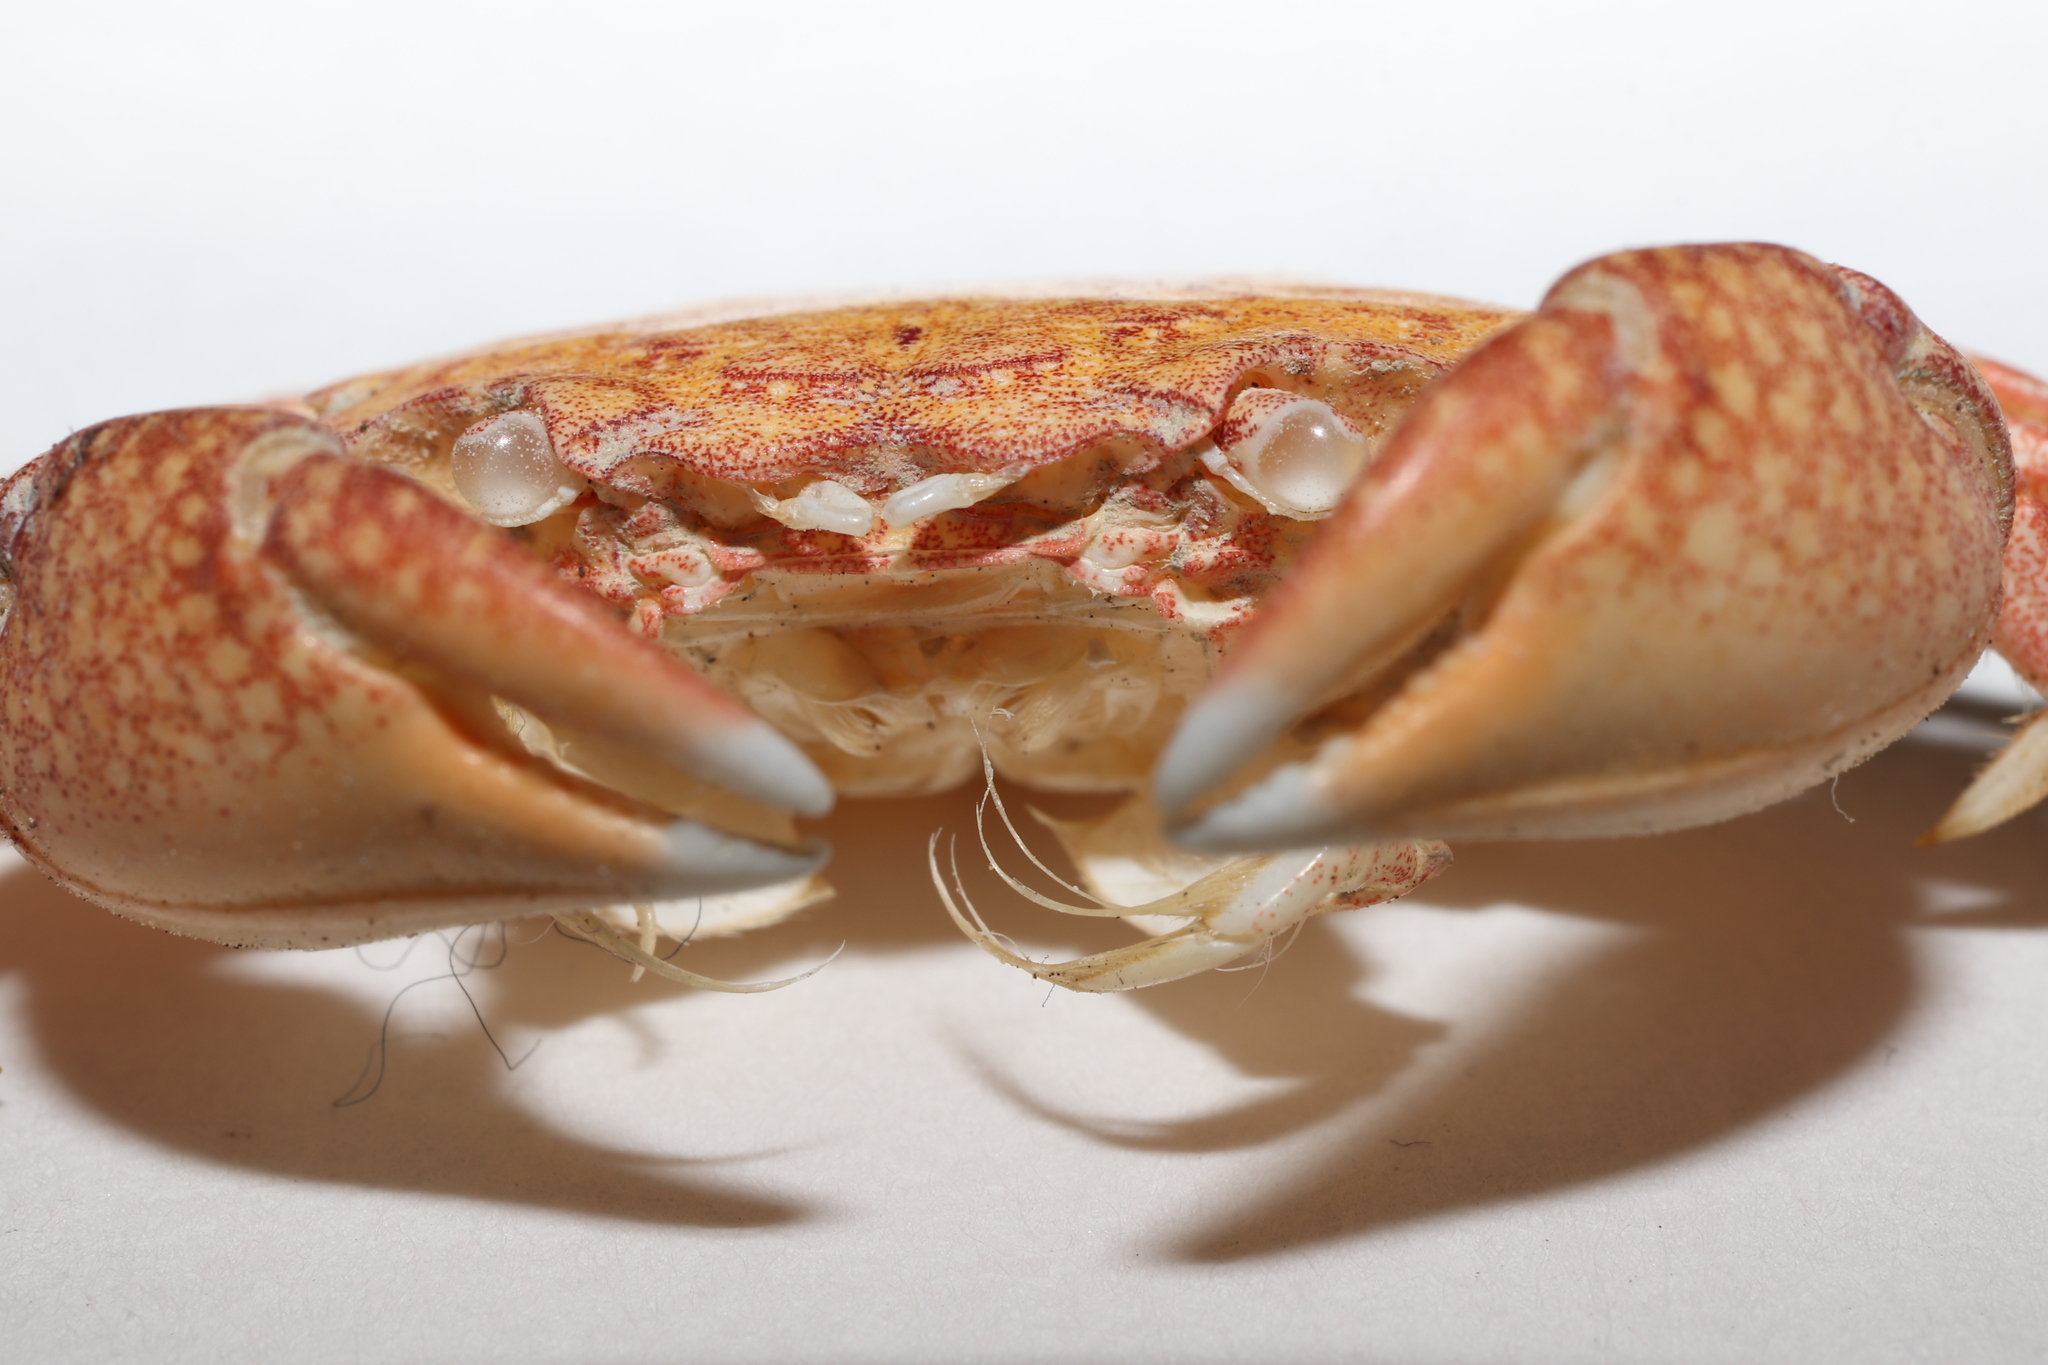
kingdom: Animalia
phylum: Arthropoda
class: Malacostraca
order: Decapoda
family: Varunidae
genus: Gaetice
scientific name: Gaetice depressus
